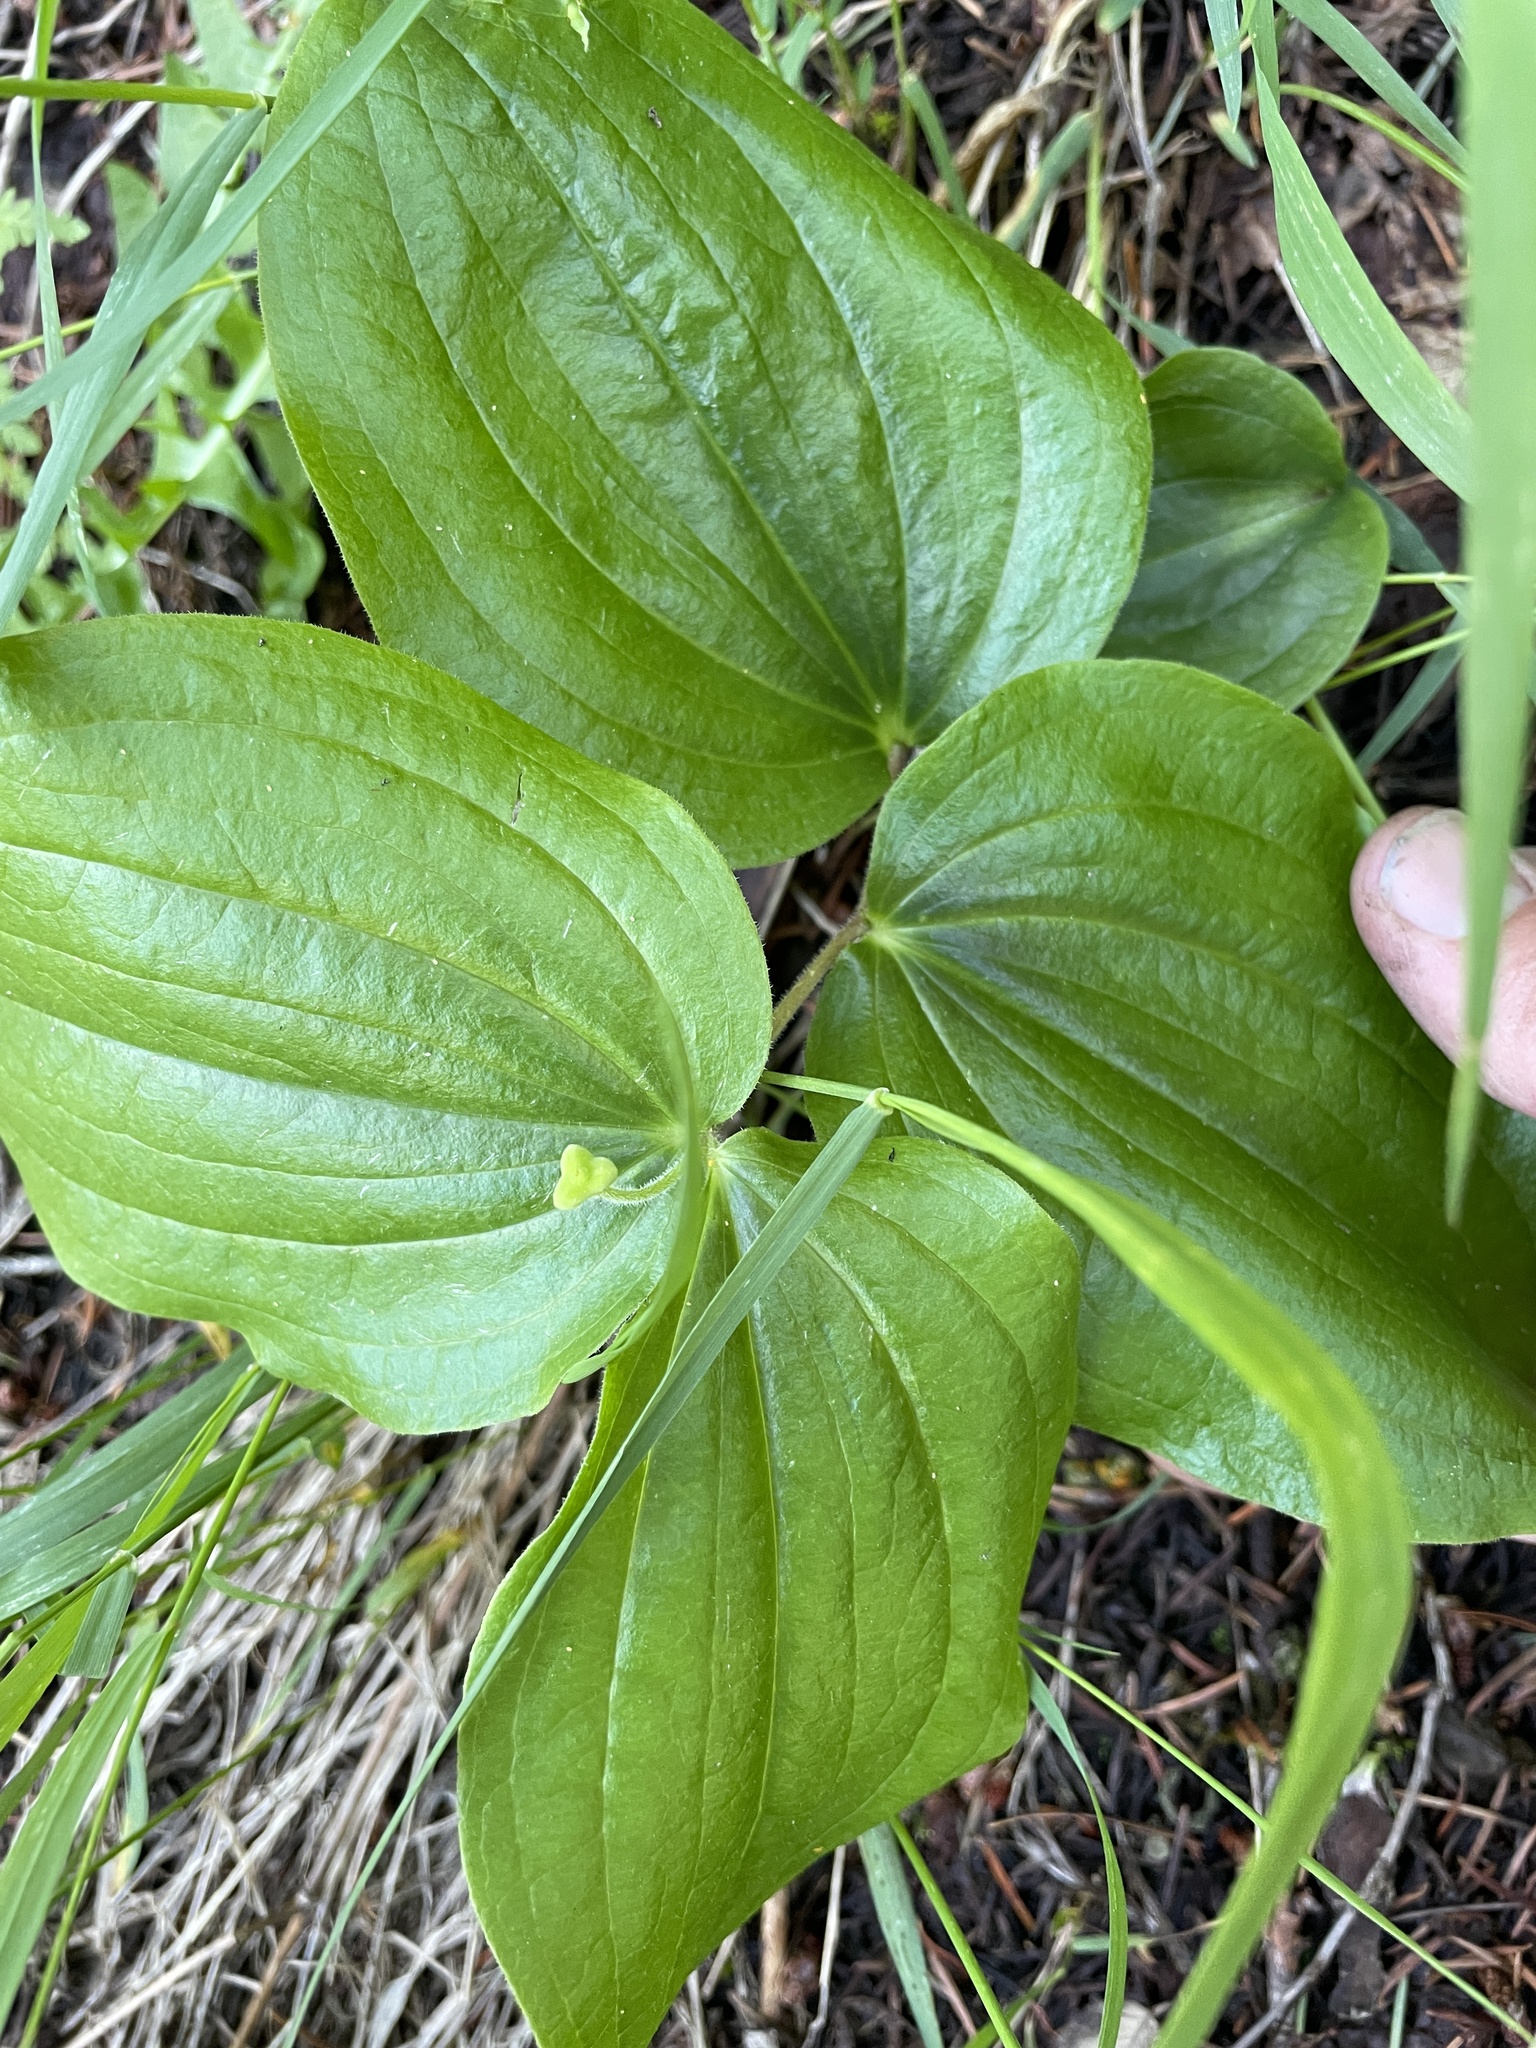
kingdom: Plantae
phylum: Tracheophyta
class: Liliopsida
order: Liliales
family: Liliaceae
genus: Prosartes
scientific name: Prosartes trachycarpa
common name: Rough-fruit fairy-bells
